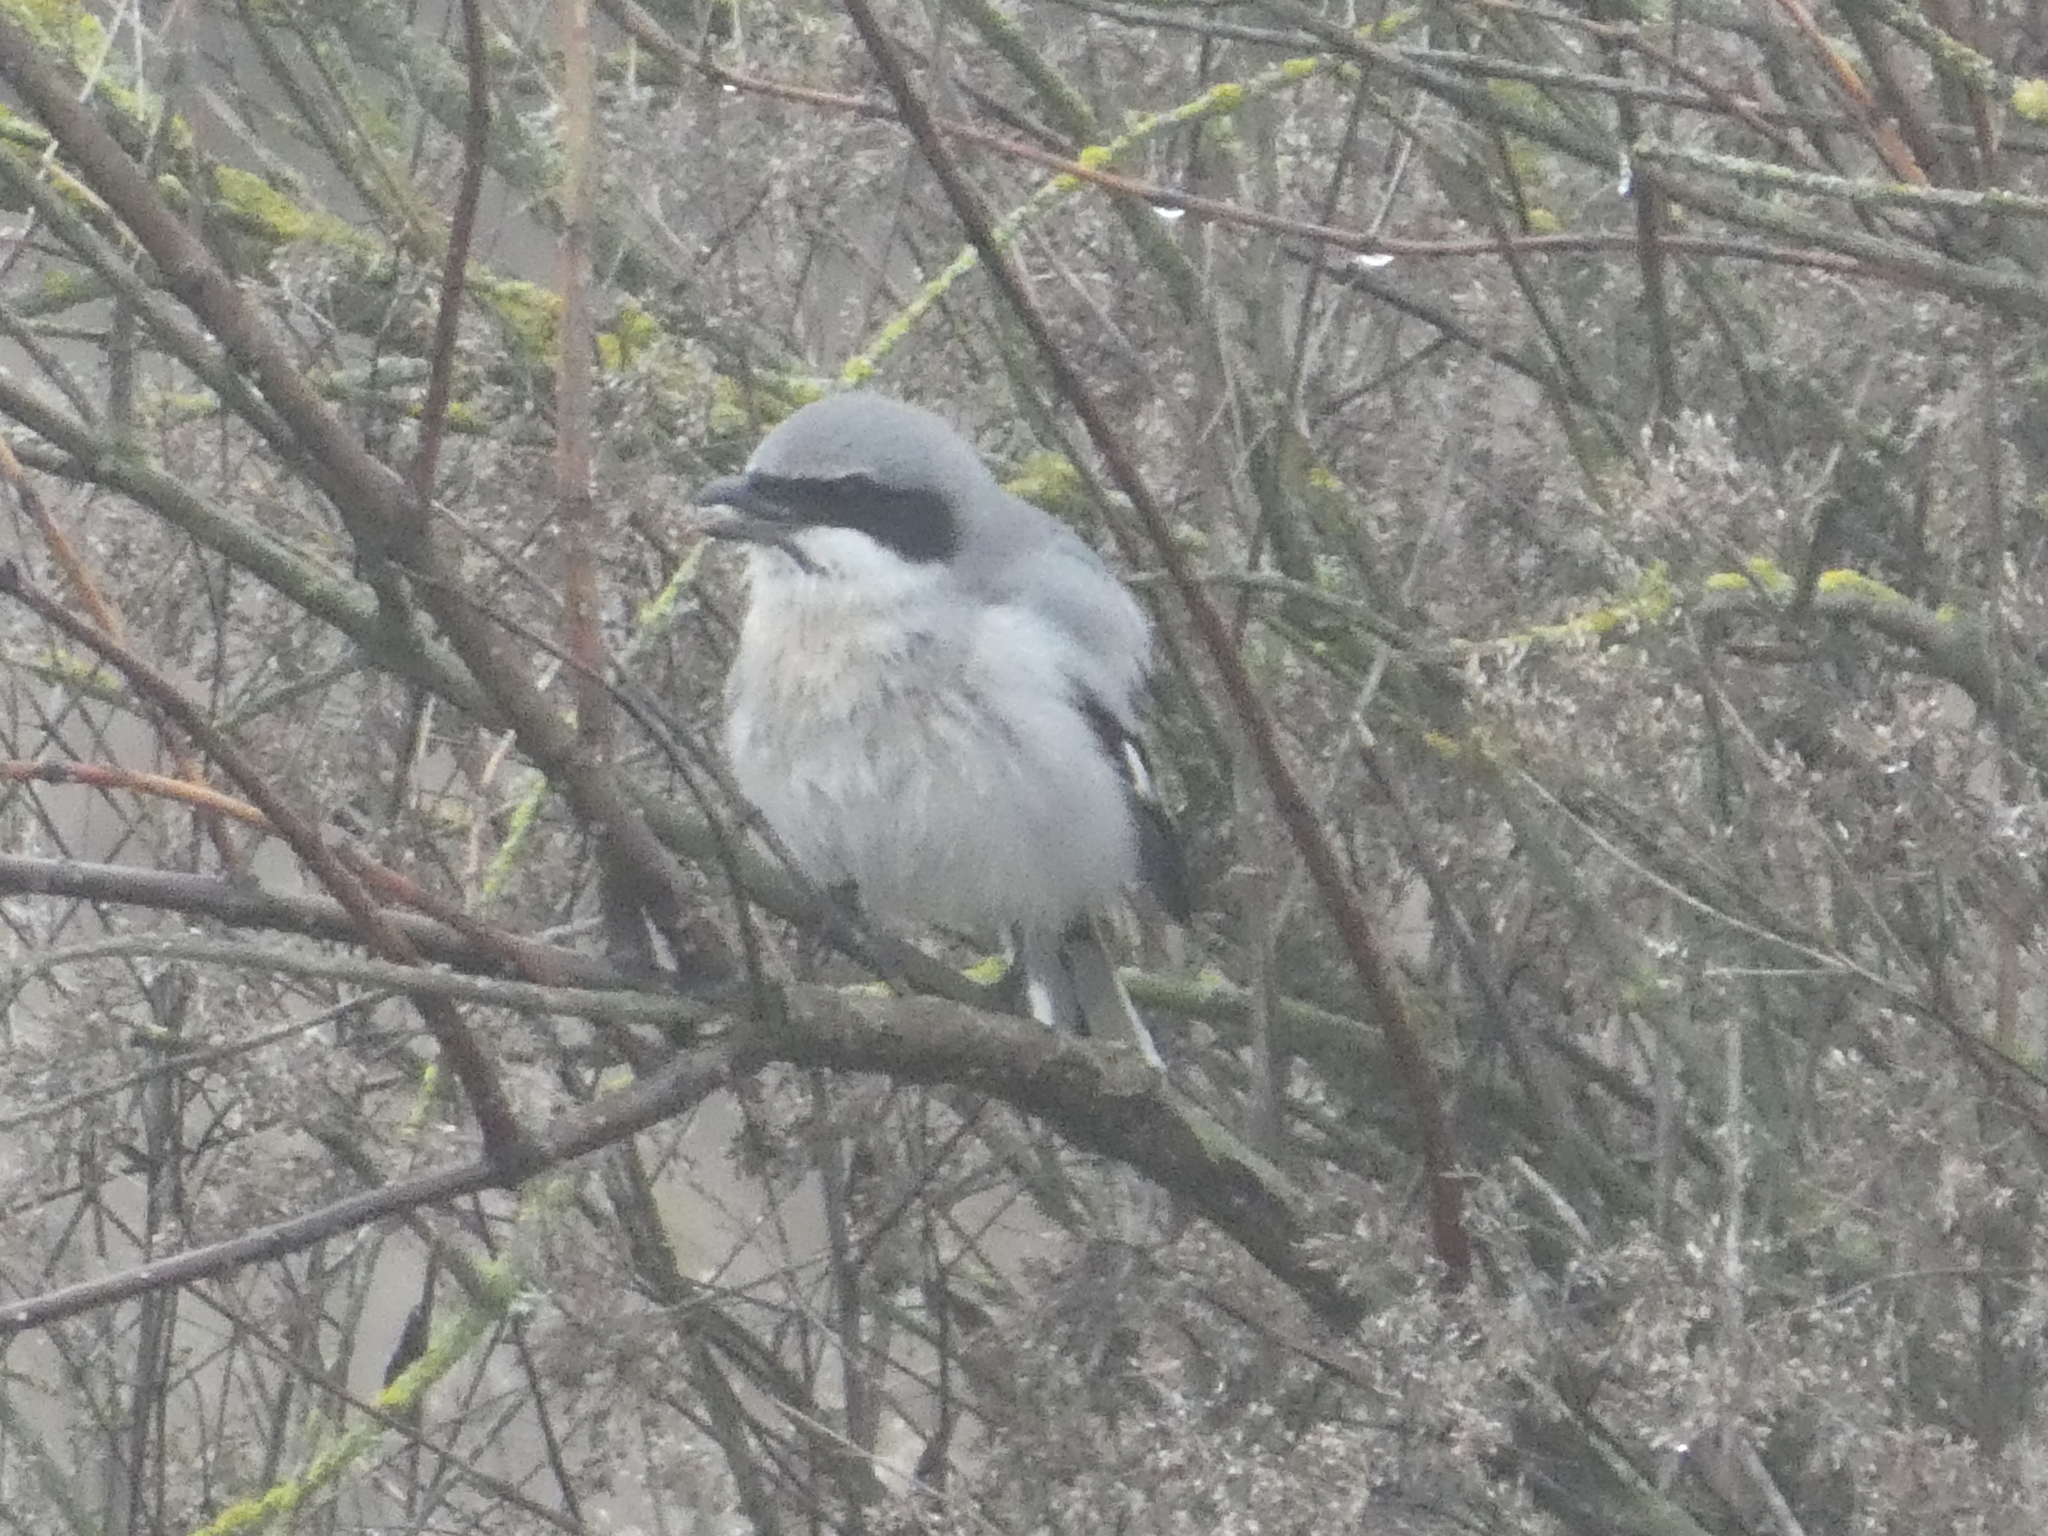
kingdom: Animalia
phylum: Chordata
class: Aves
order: Passeriformes
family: Laniidae
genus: Lanius
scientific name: Lanius ludovicianus
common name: Loggerhead shrike
